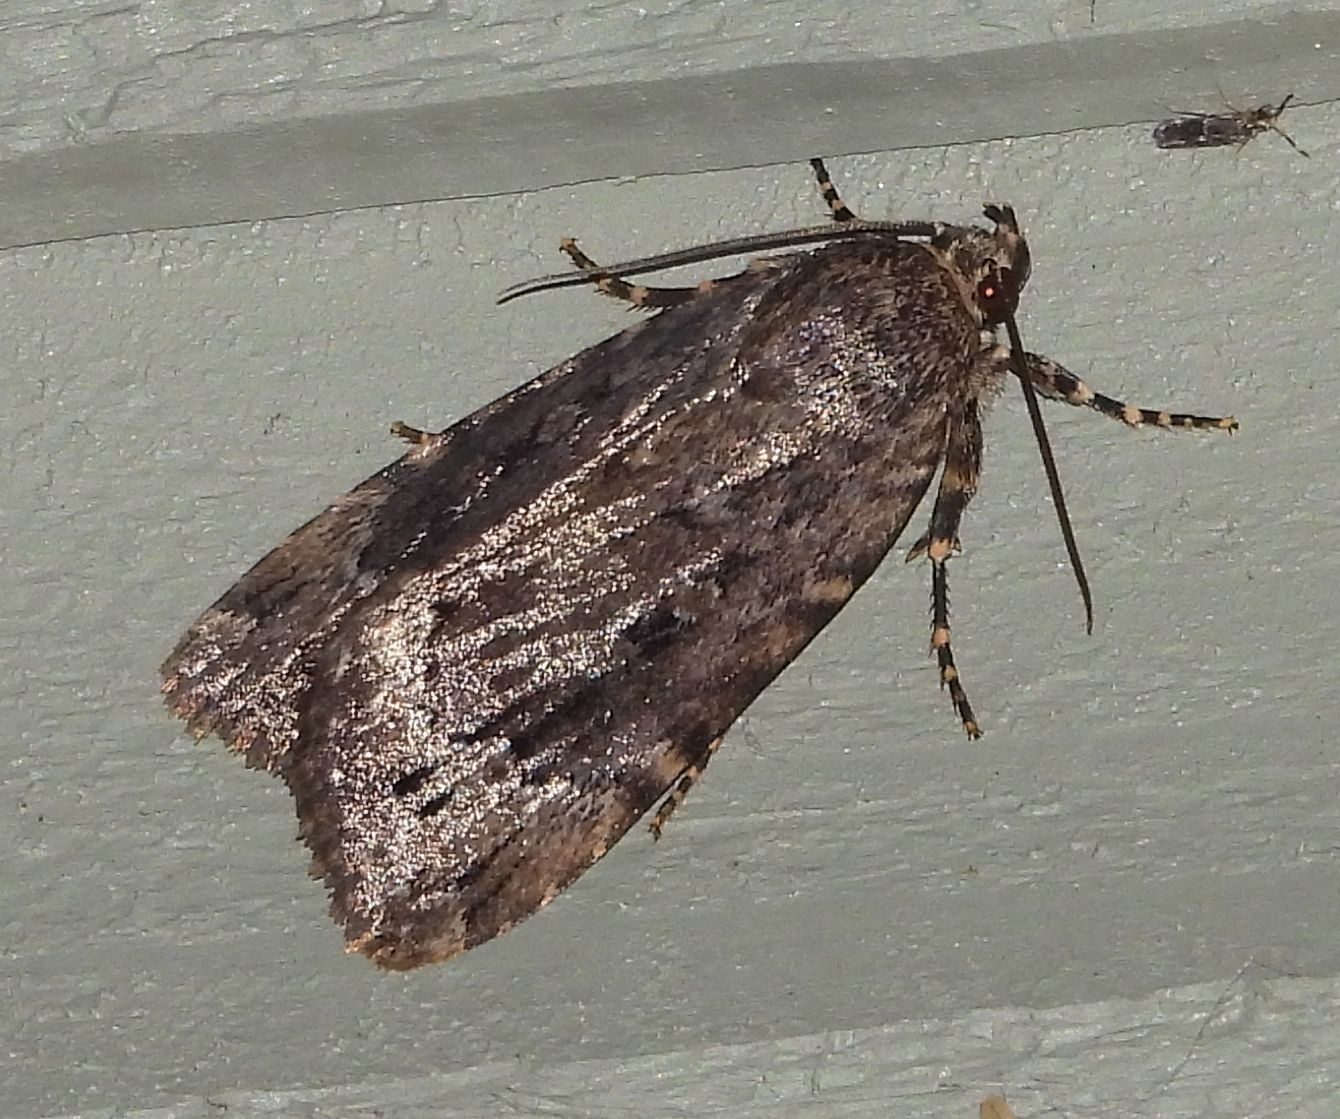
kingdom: Animalia
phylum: Arthropoda
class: Insecta
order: Lepidoptera
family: Noctuidae
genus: Amphipyra
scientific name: Amphipyra pyramidoides
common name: American copper underwing
